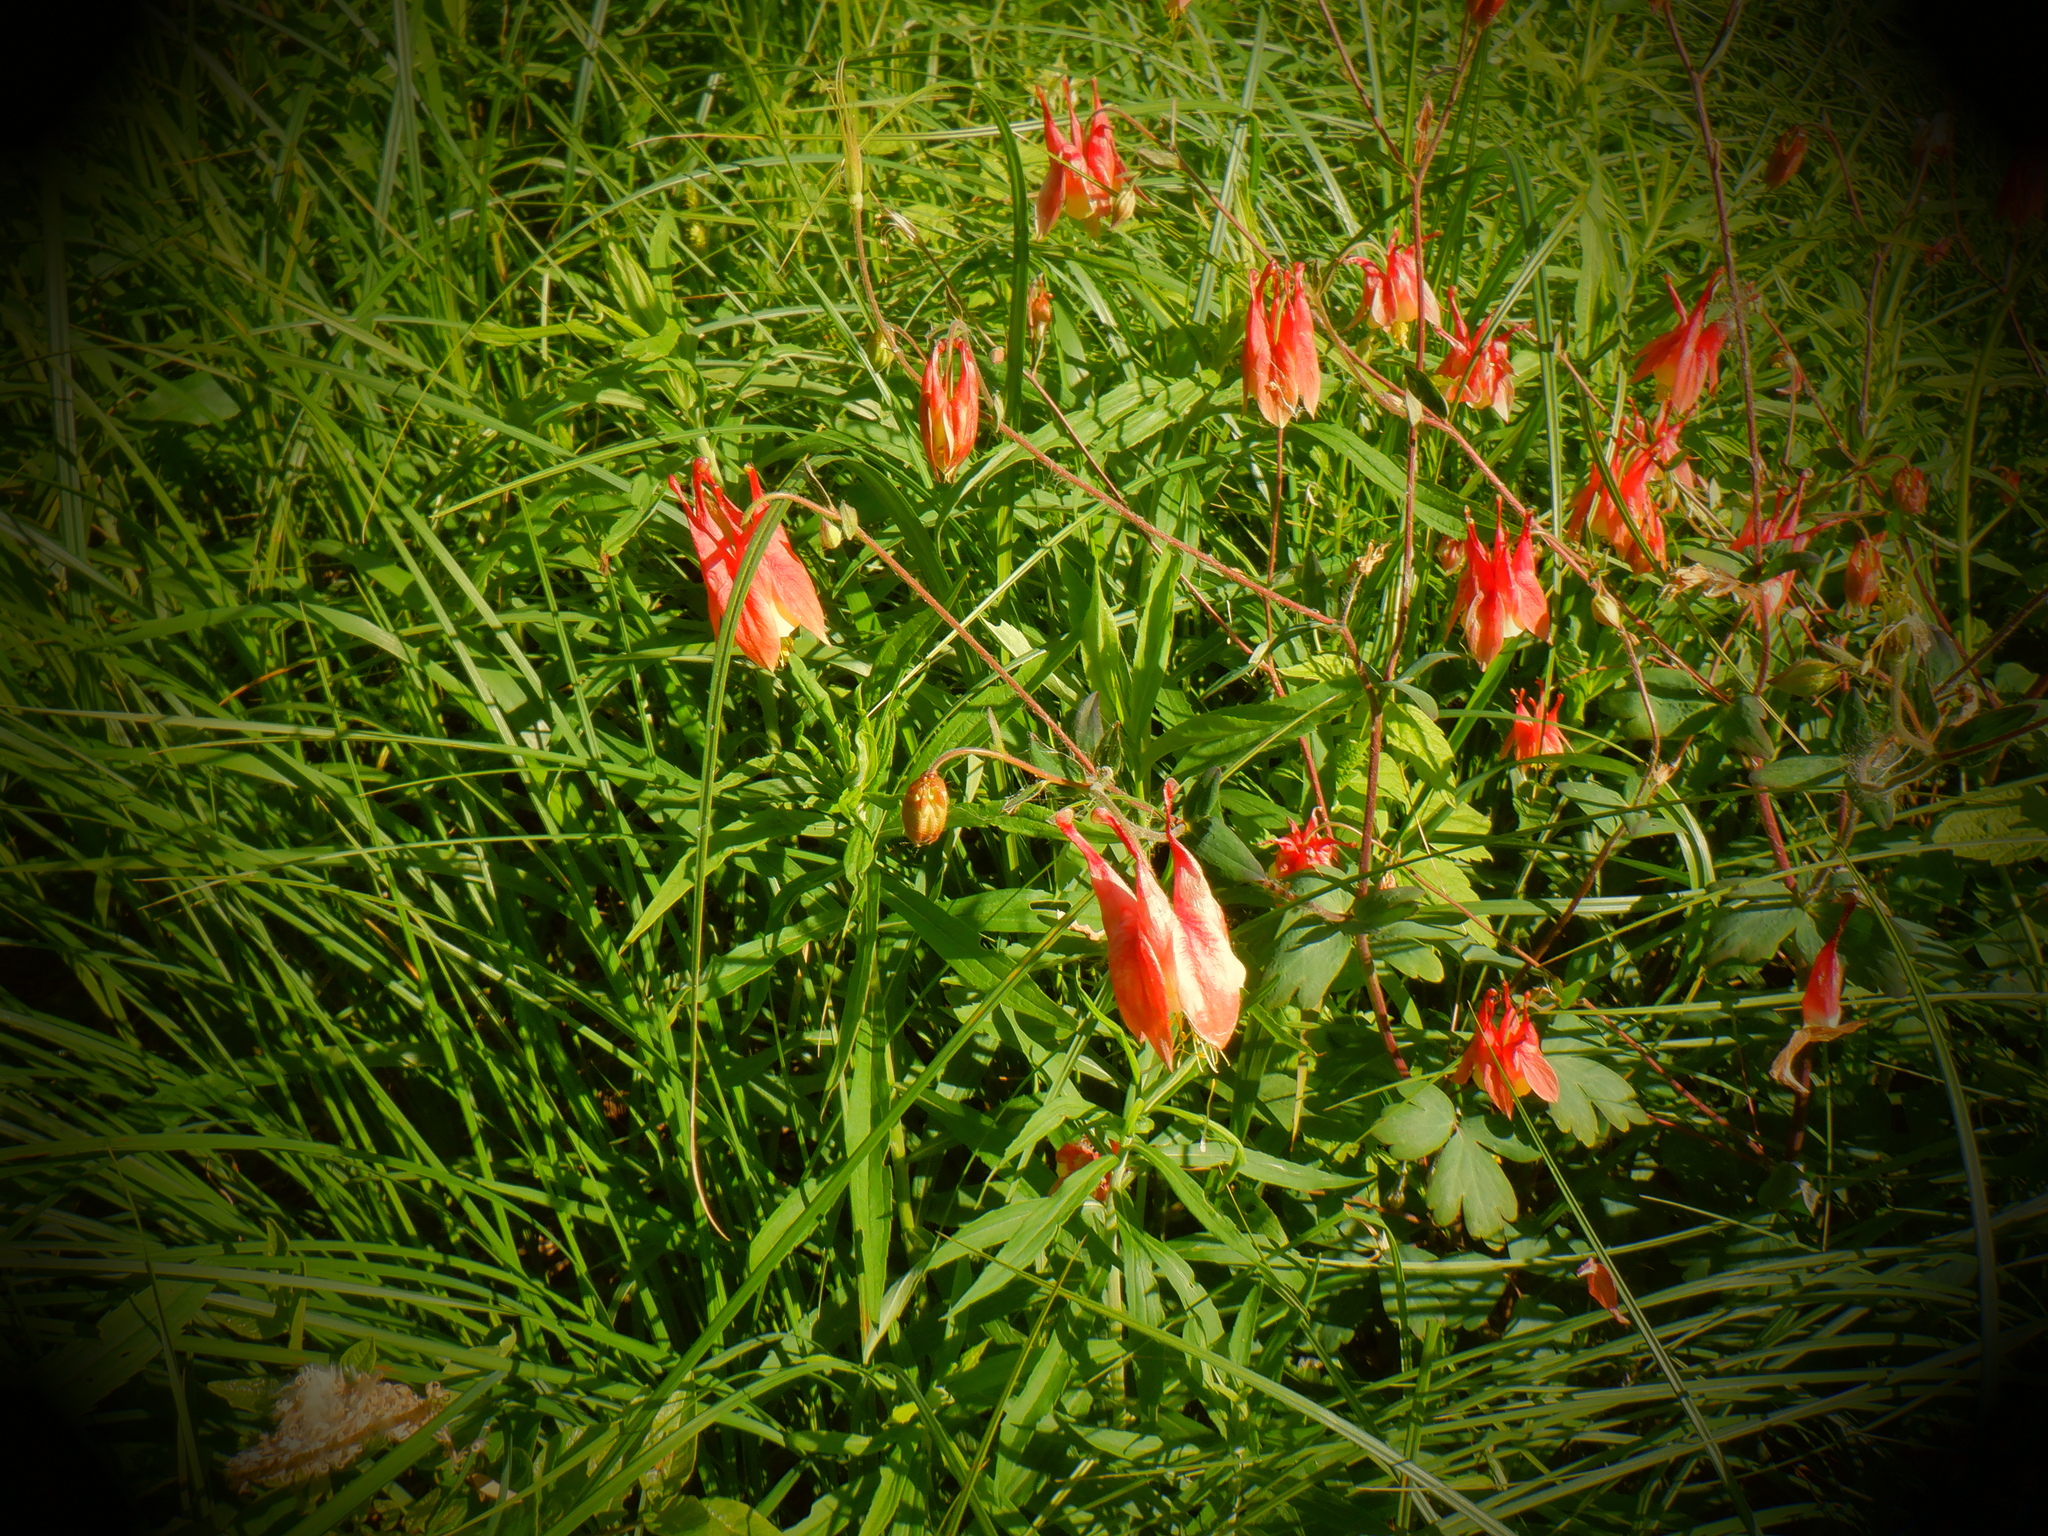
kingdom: Plantae
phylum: Tracheophyta
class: Magnoliopsida
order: Ranunculales
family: Ranunculaceae
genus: Aquilegia
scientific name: Aquilegia canadensis
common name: American columbine
